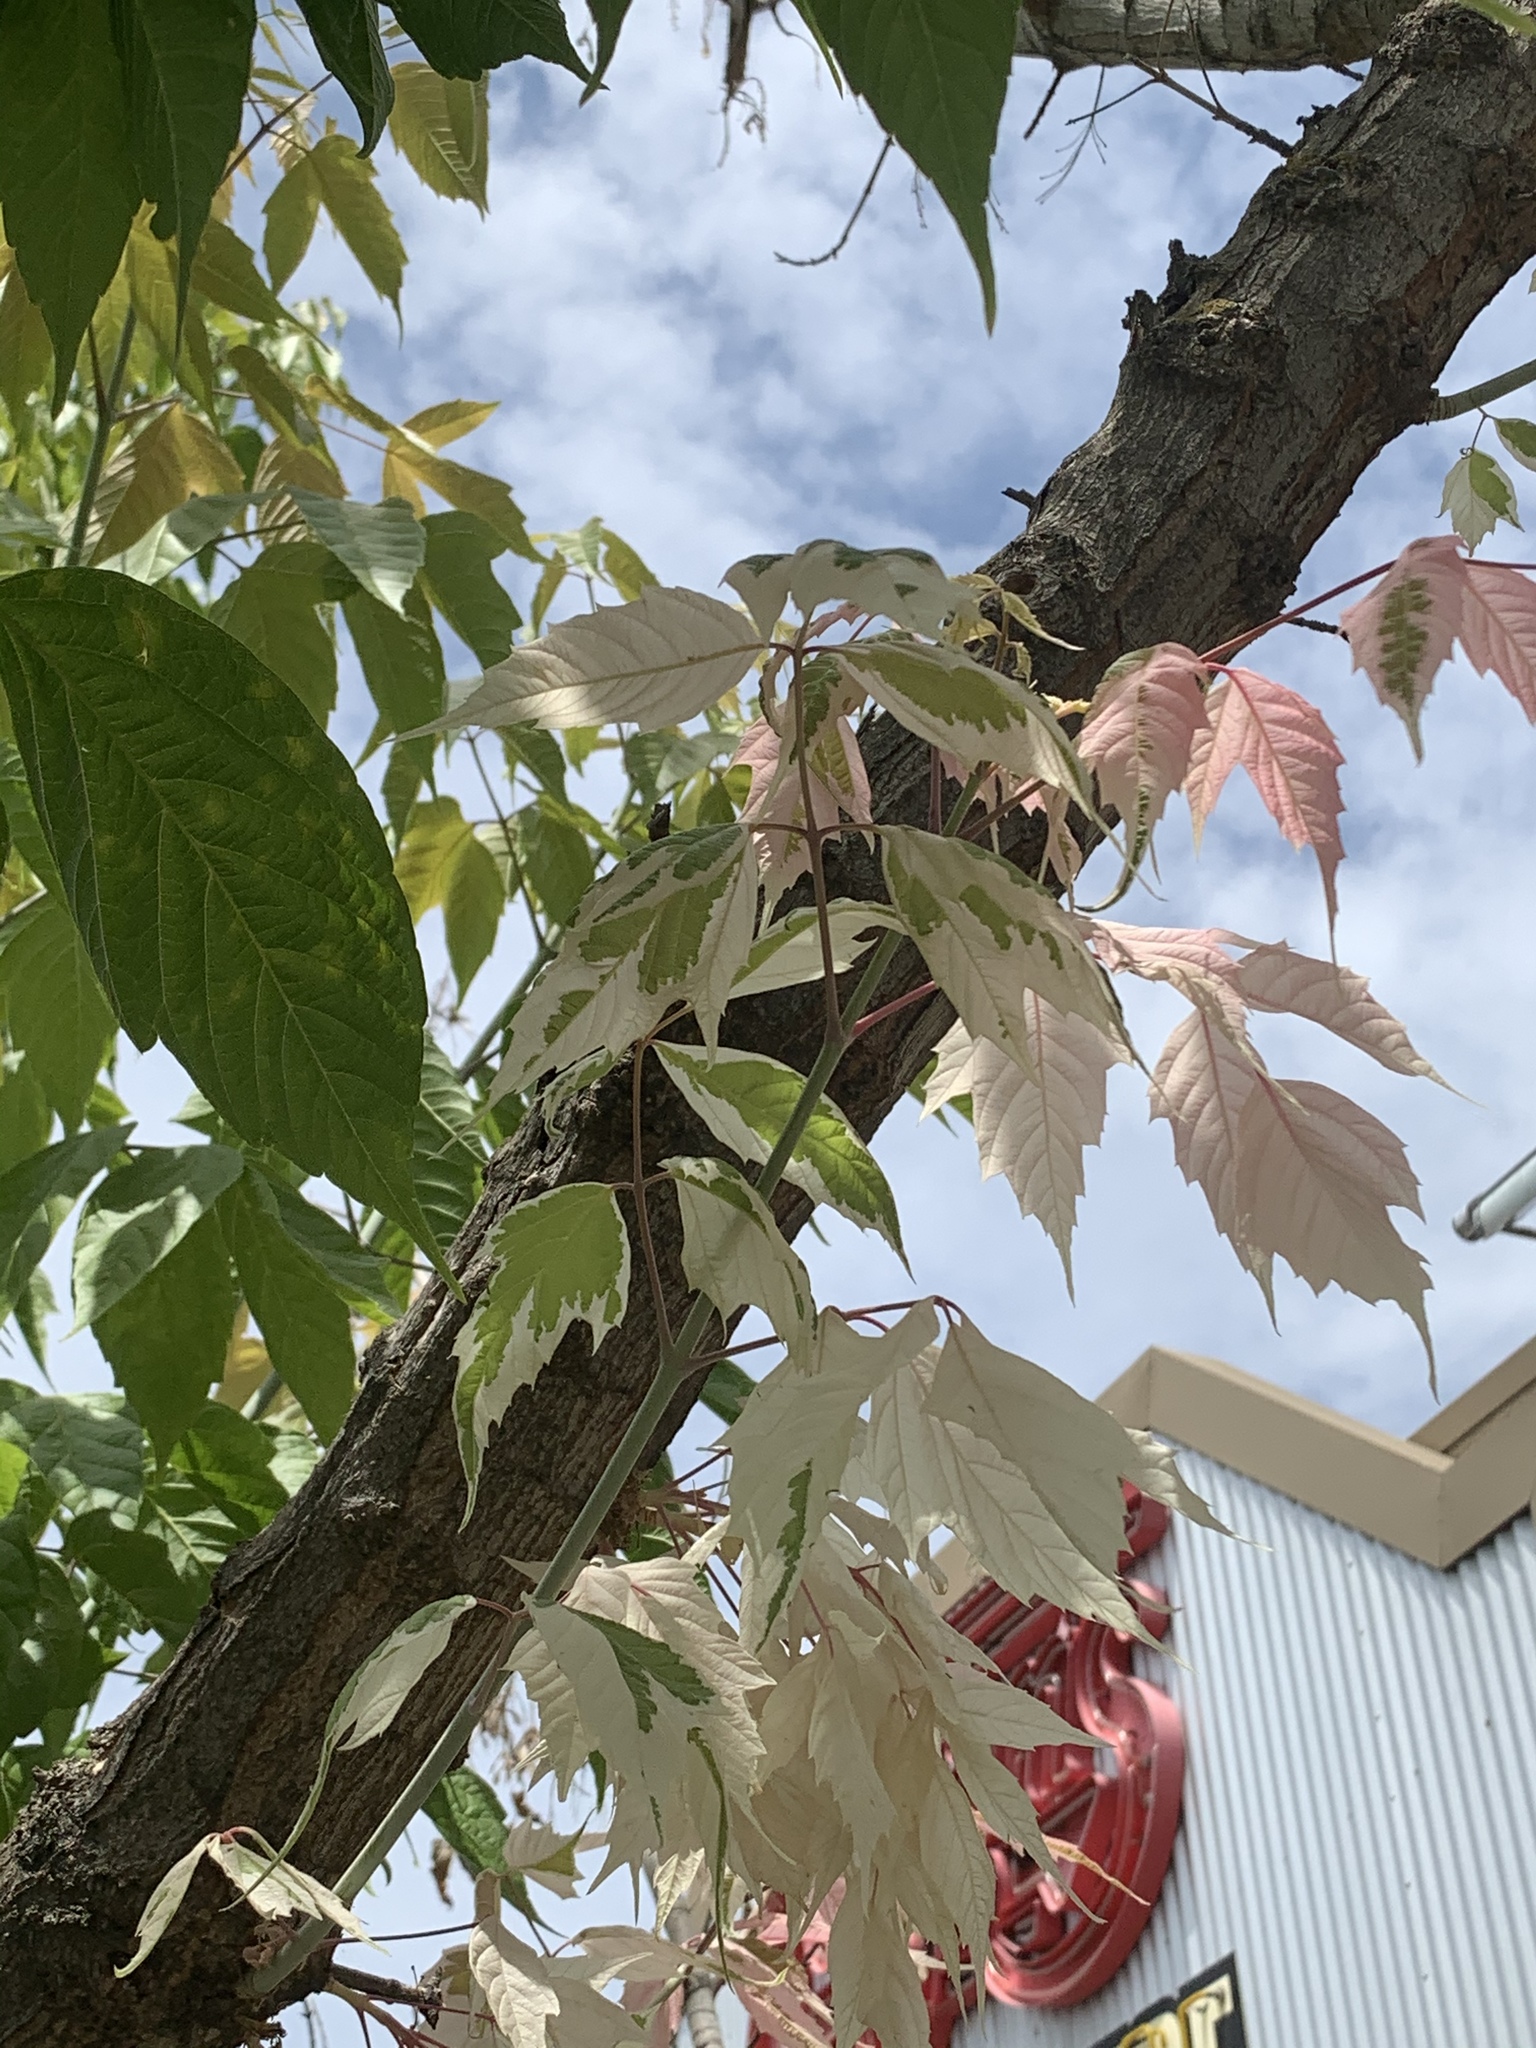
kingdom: Plantae
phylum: Tracheophyta
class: Magnoliopsida
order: Sapindales
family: Sapindaceae
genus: Acer
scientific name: Acer negundo
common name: Ashleaf maple
